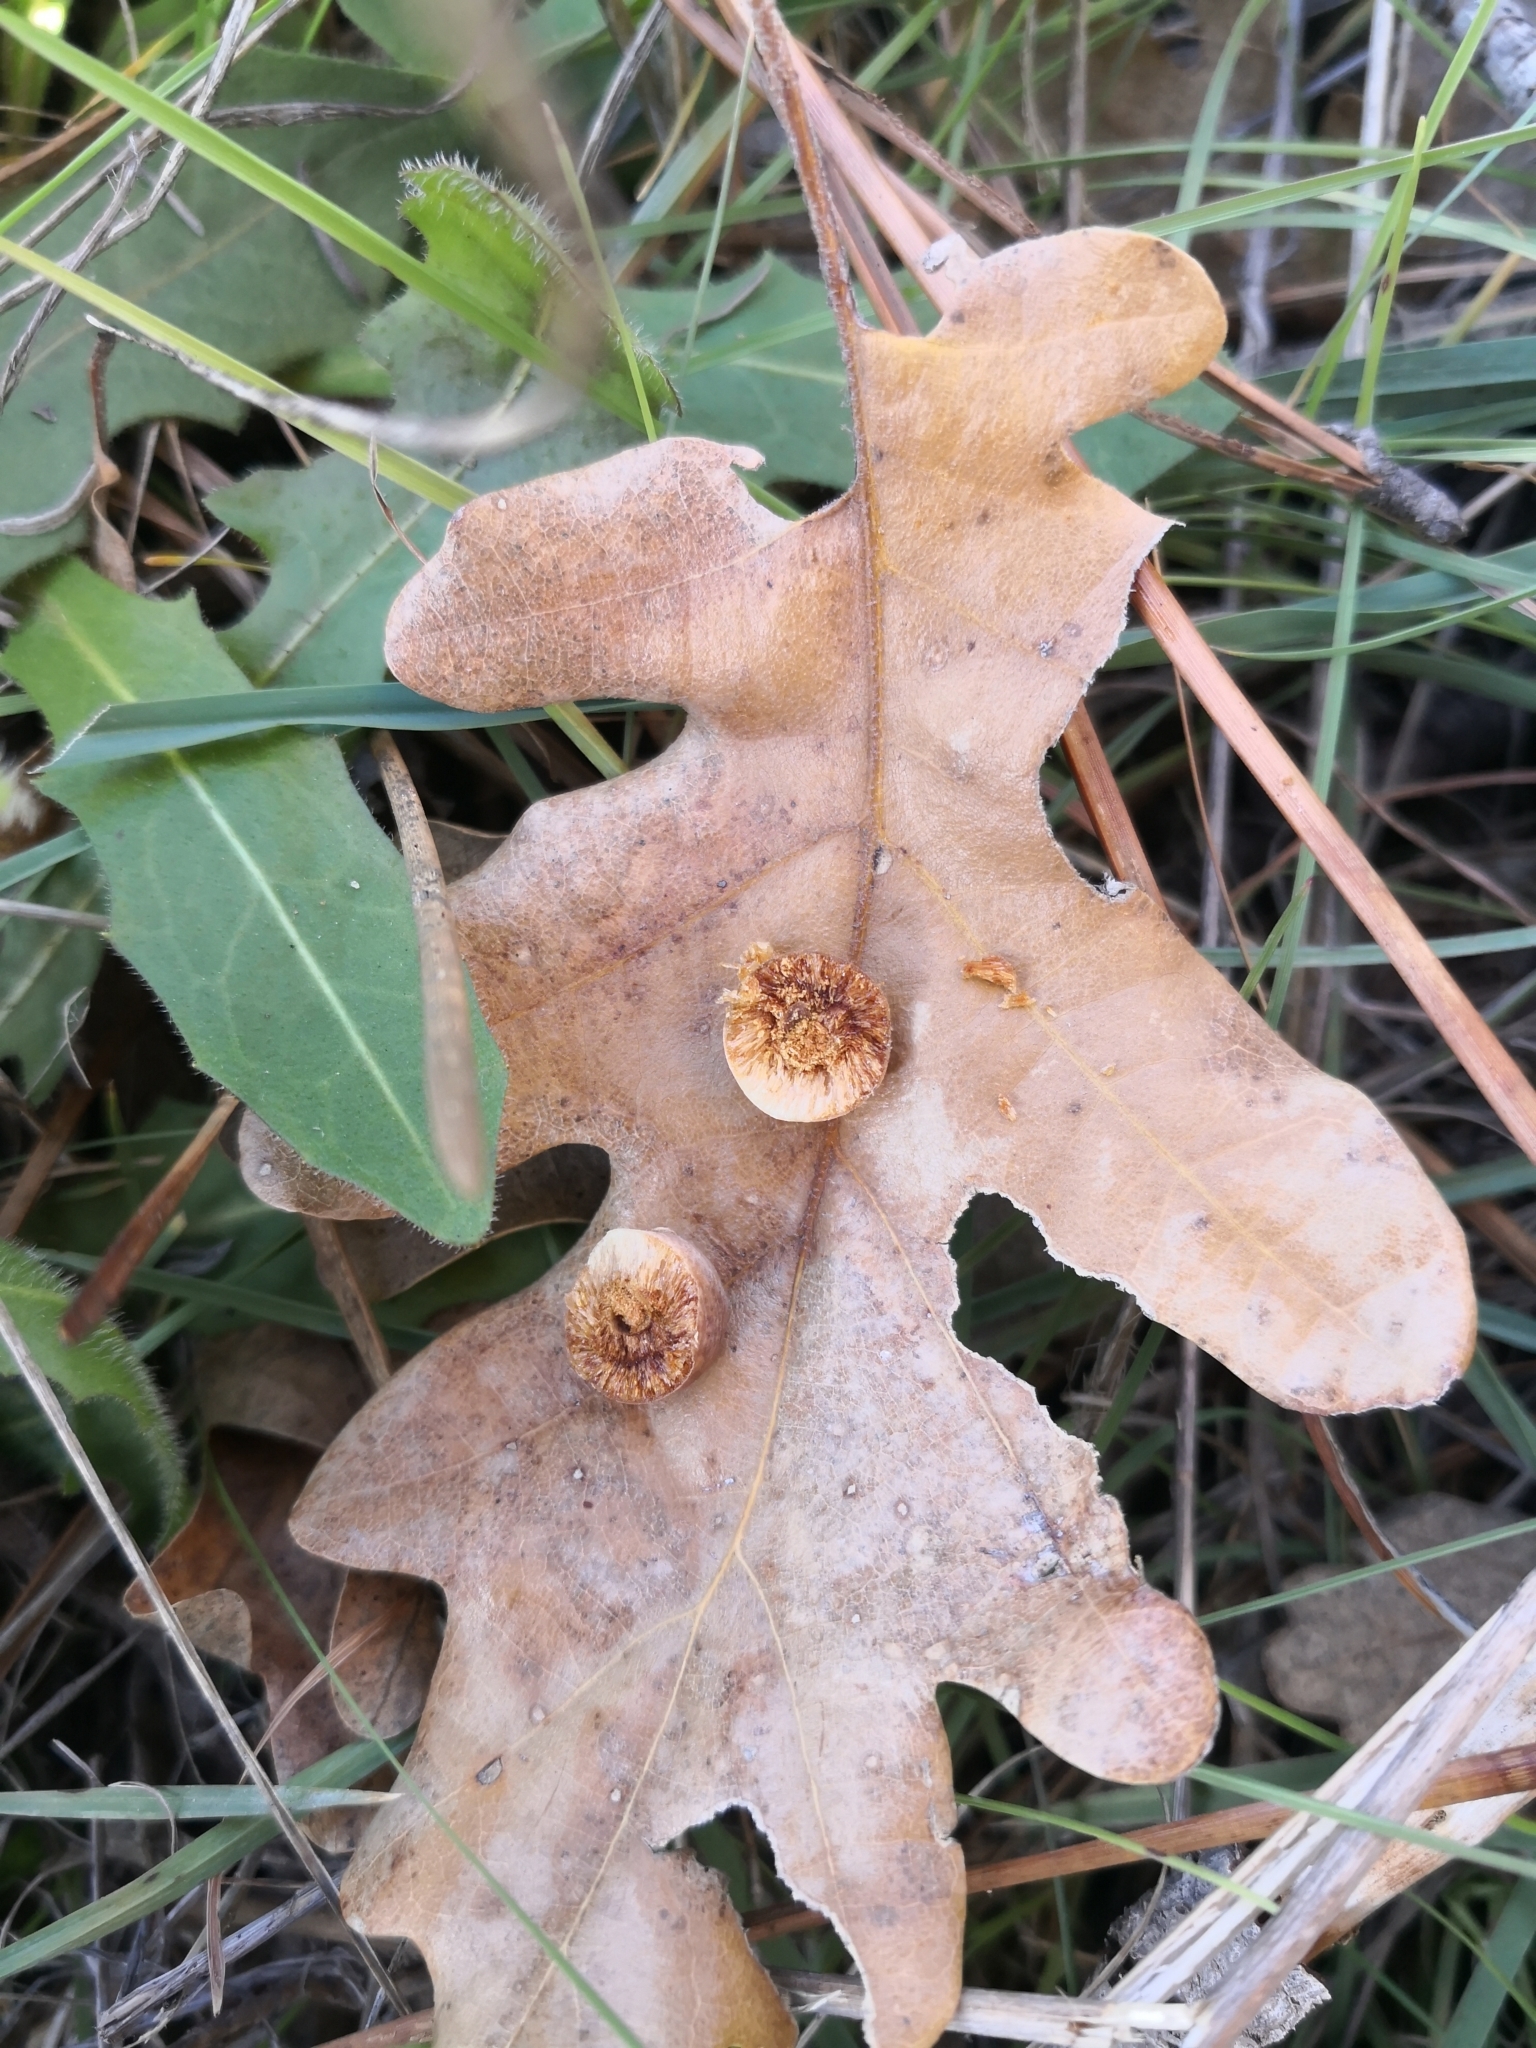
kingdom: Animalia
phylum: Arthropoda
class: Insecta
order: Hymenoptera
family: Cynipidae
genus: Cynips
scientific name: Cynips quercus
